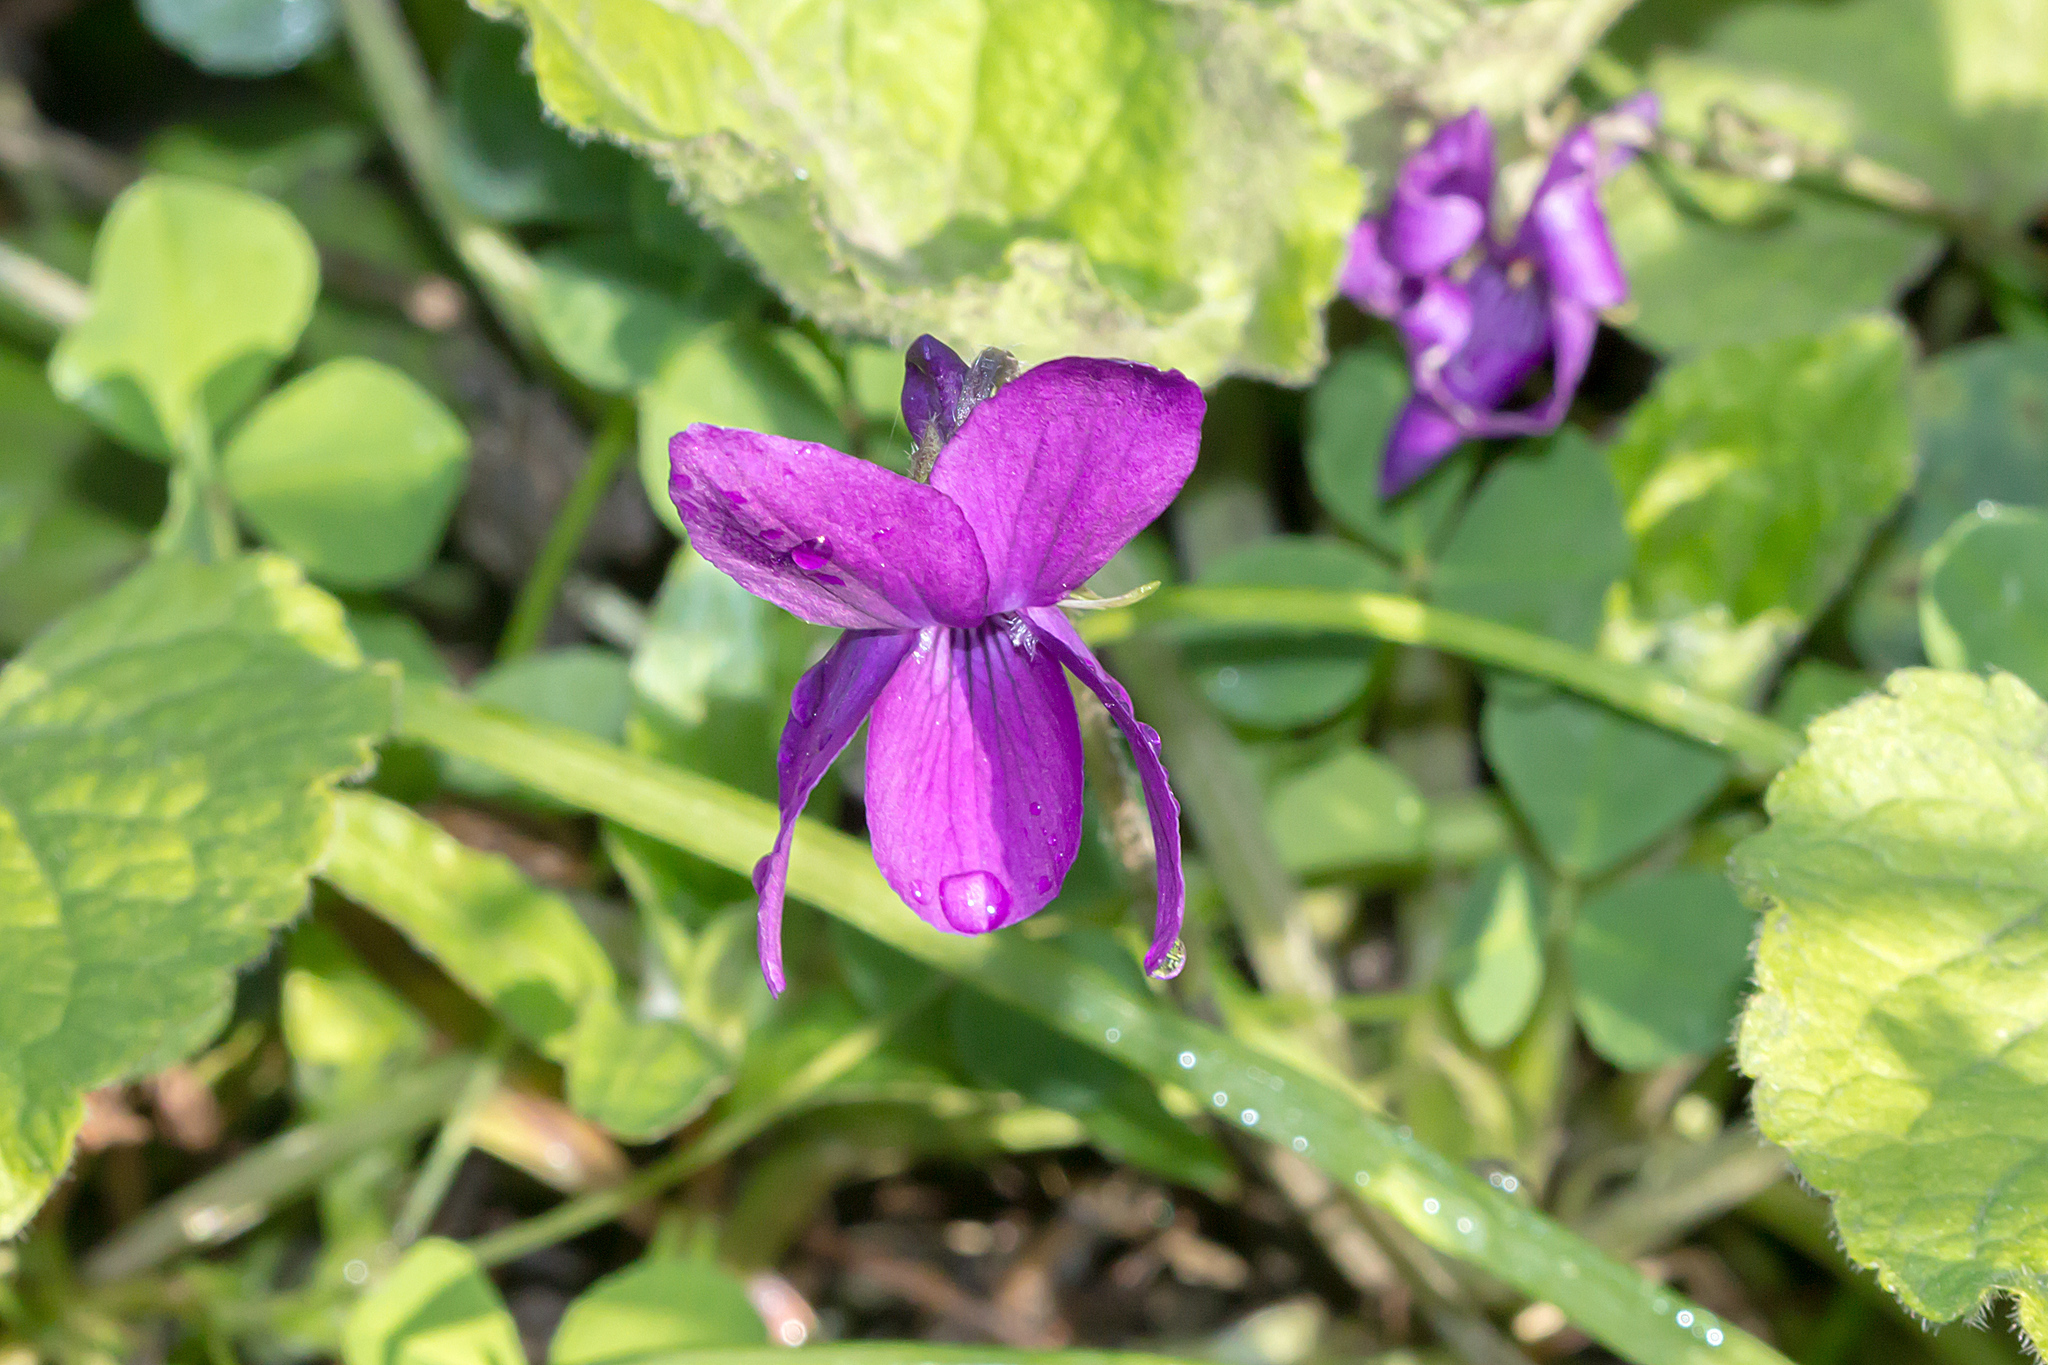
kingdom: Plantae
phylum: Tracheophyta
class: Magnoliopsida
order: Malpighiales
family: Violaceae
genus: Viola
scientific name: Viola odorata
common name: Sweet violet
